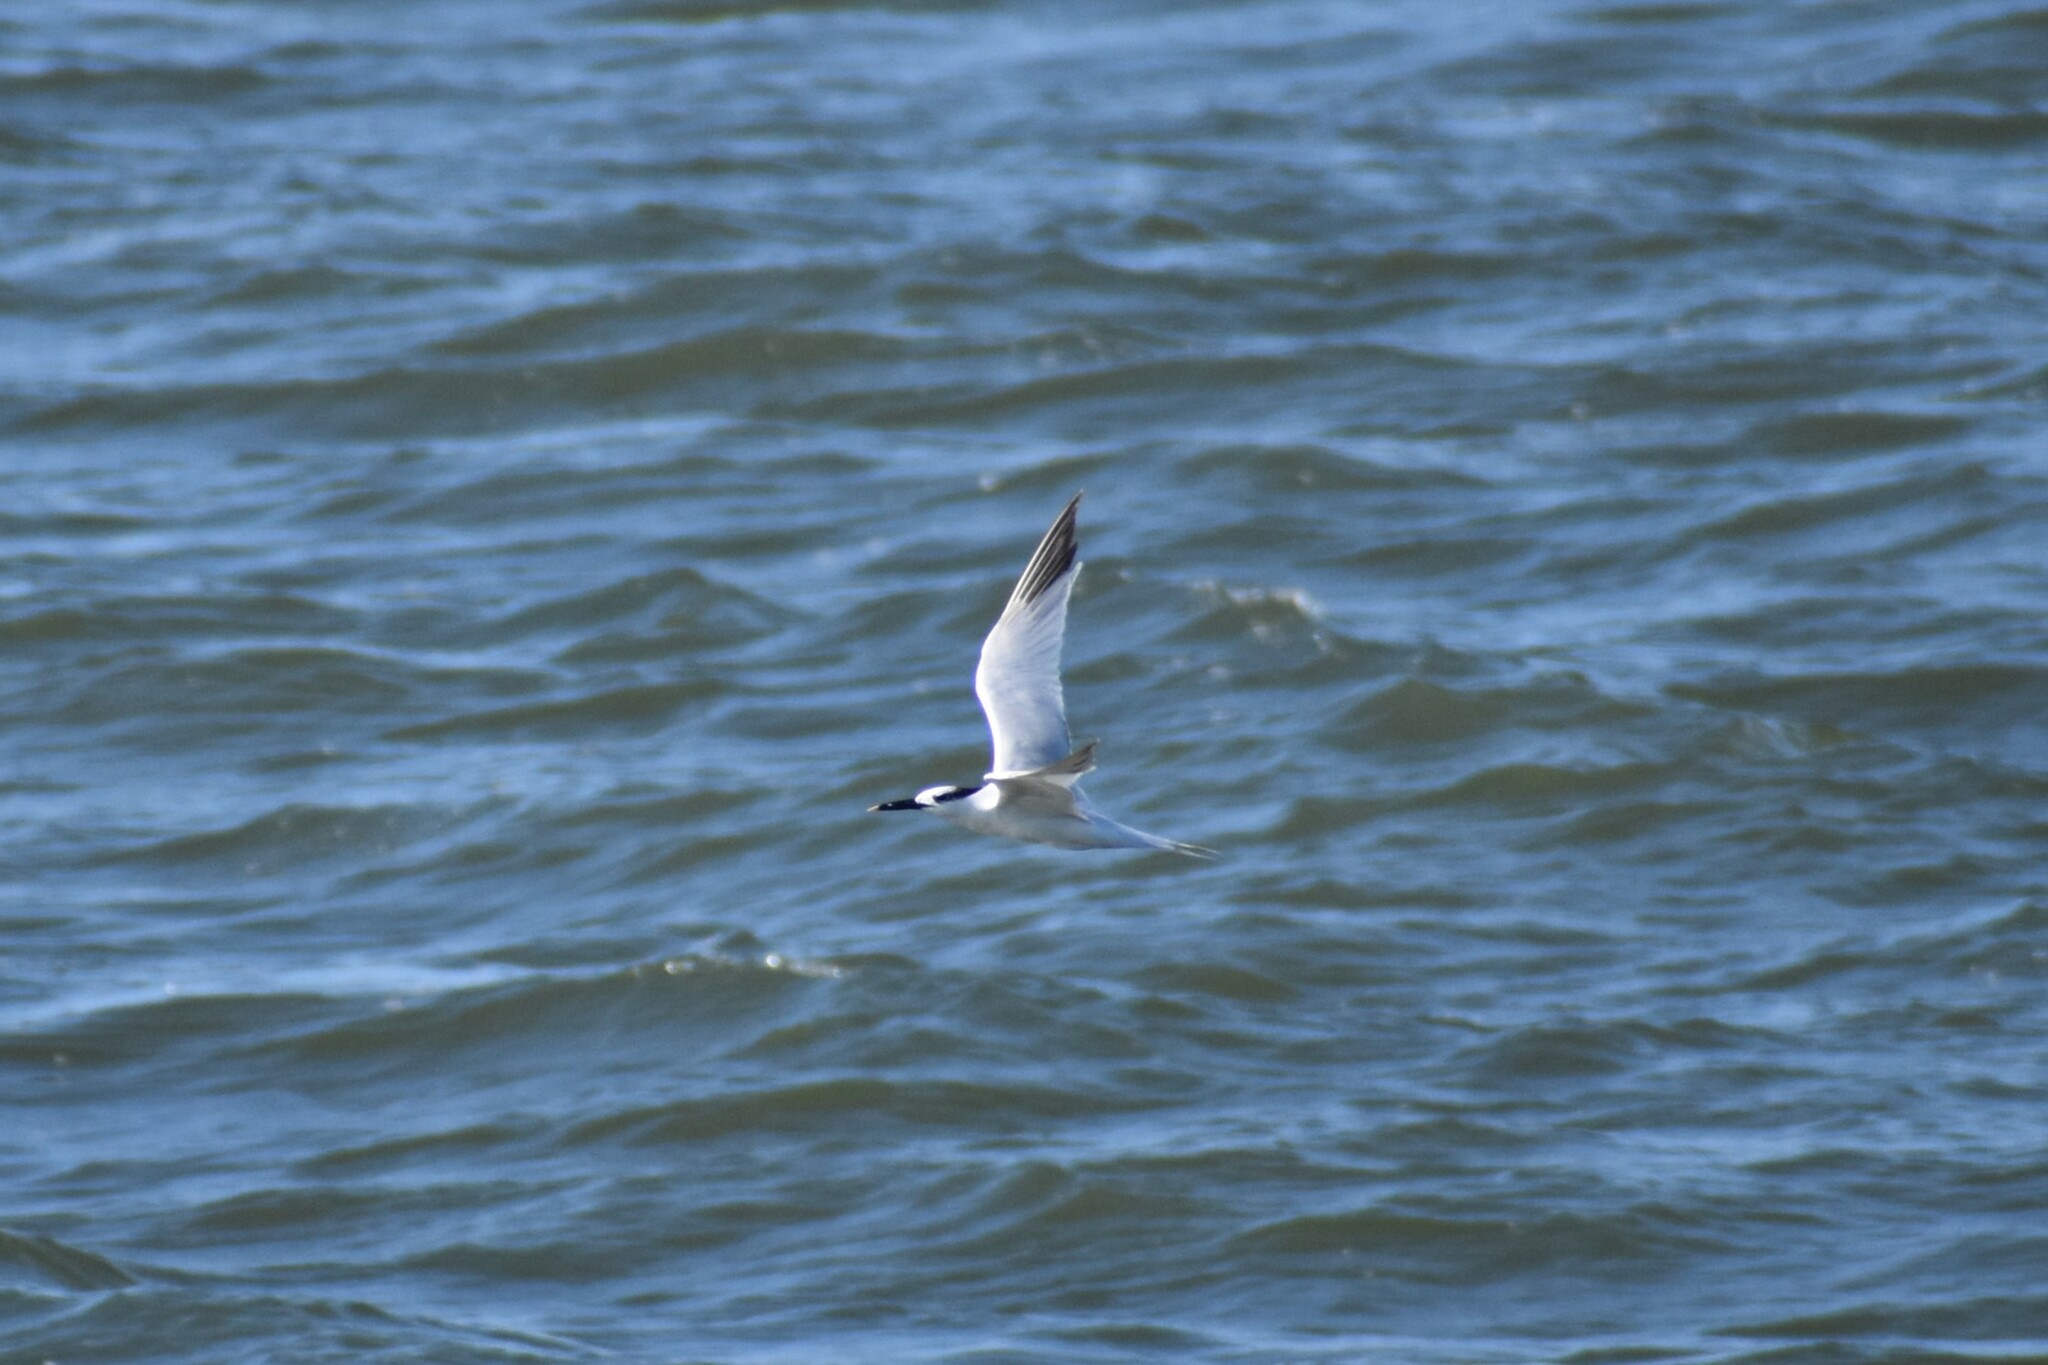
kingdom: Animalia
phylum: Chordata
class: Aves
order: Charadriiformes
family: Laridae
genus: Thalasseus
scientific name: Thalasseus sandvicensis
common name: Sandwich tern
